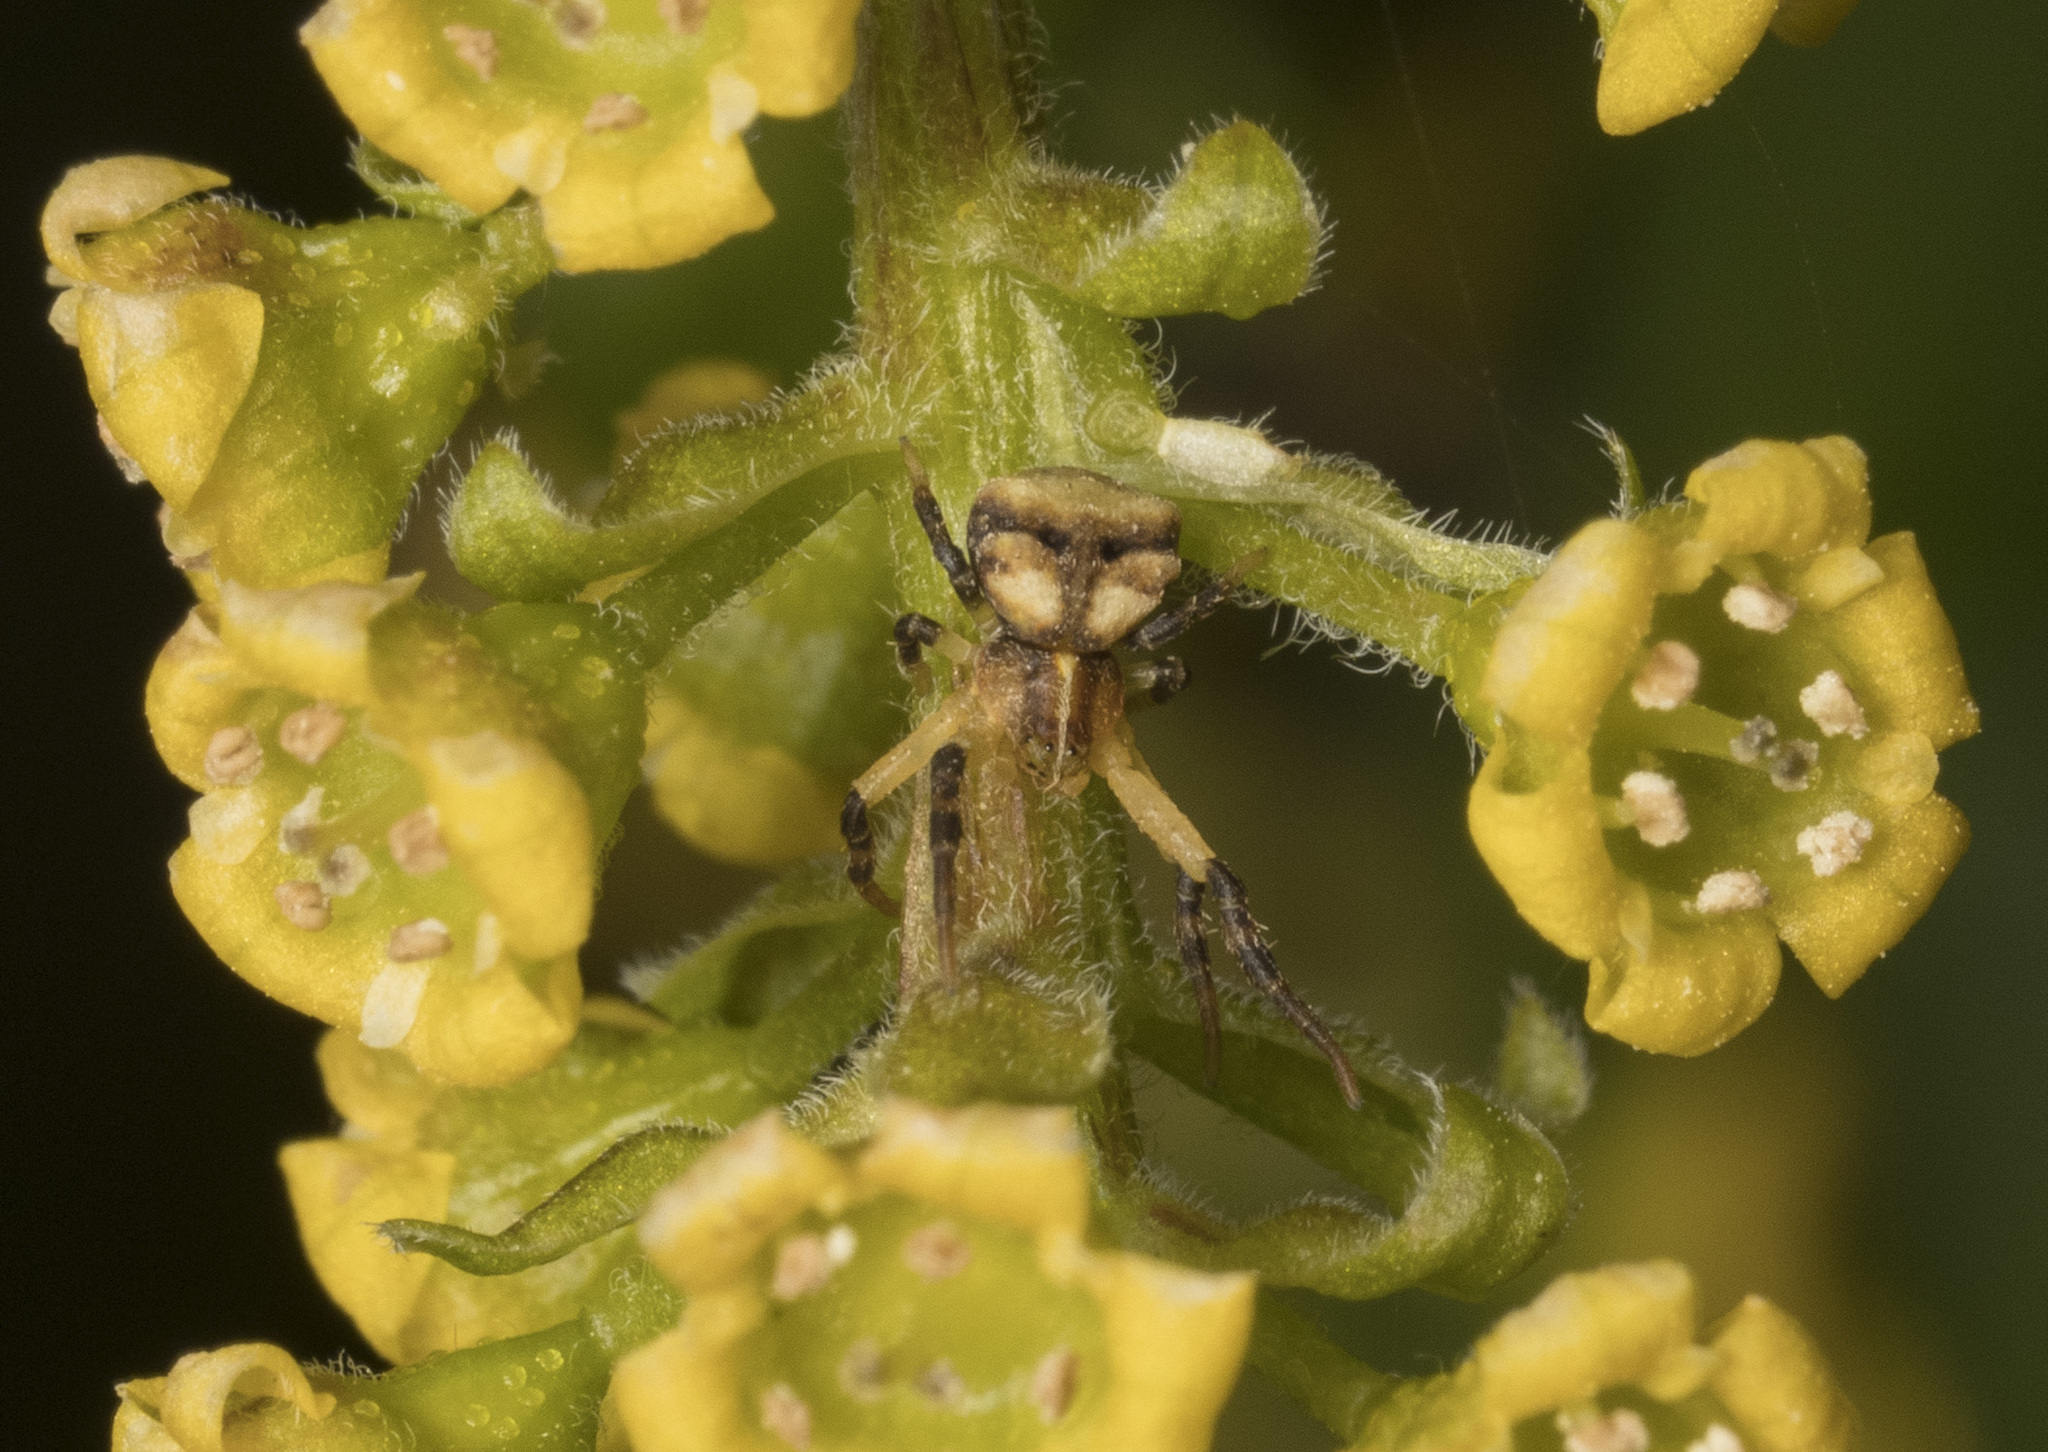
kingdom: Animalia
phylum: Arthropoda
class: Arachnida
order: Araneae
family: Thomisidae
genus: Coenypha
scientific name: Coenypha ditissima
